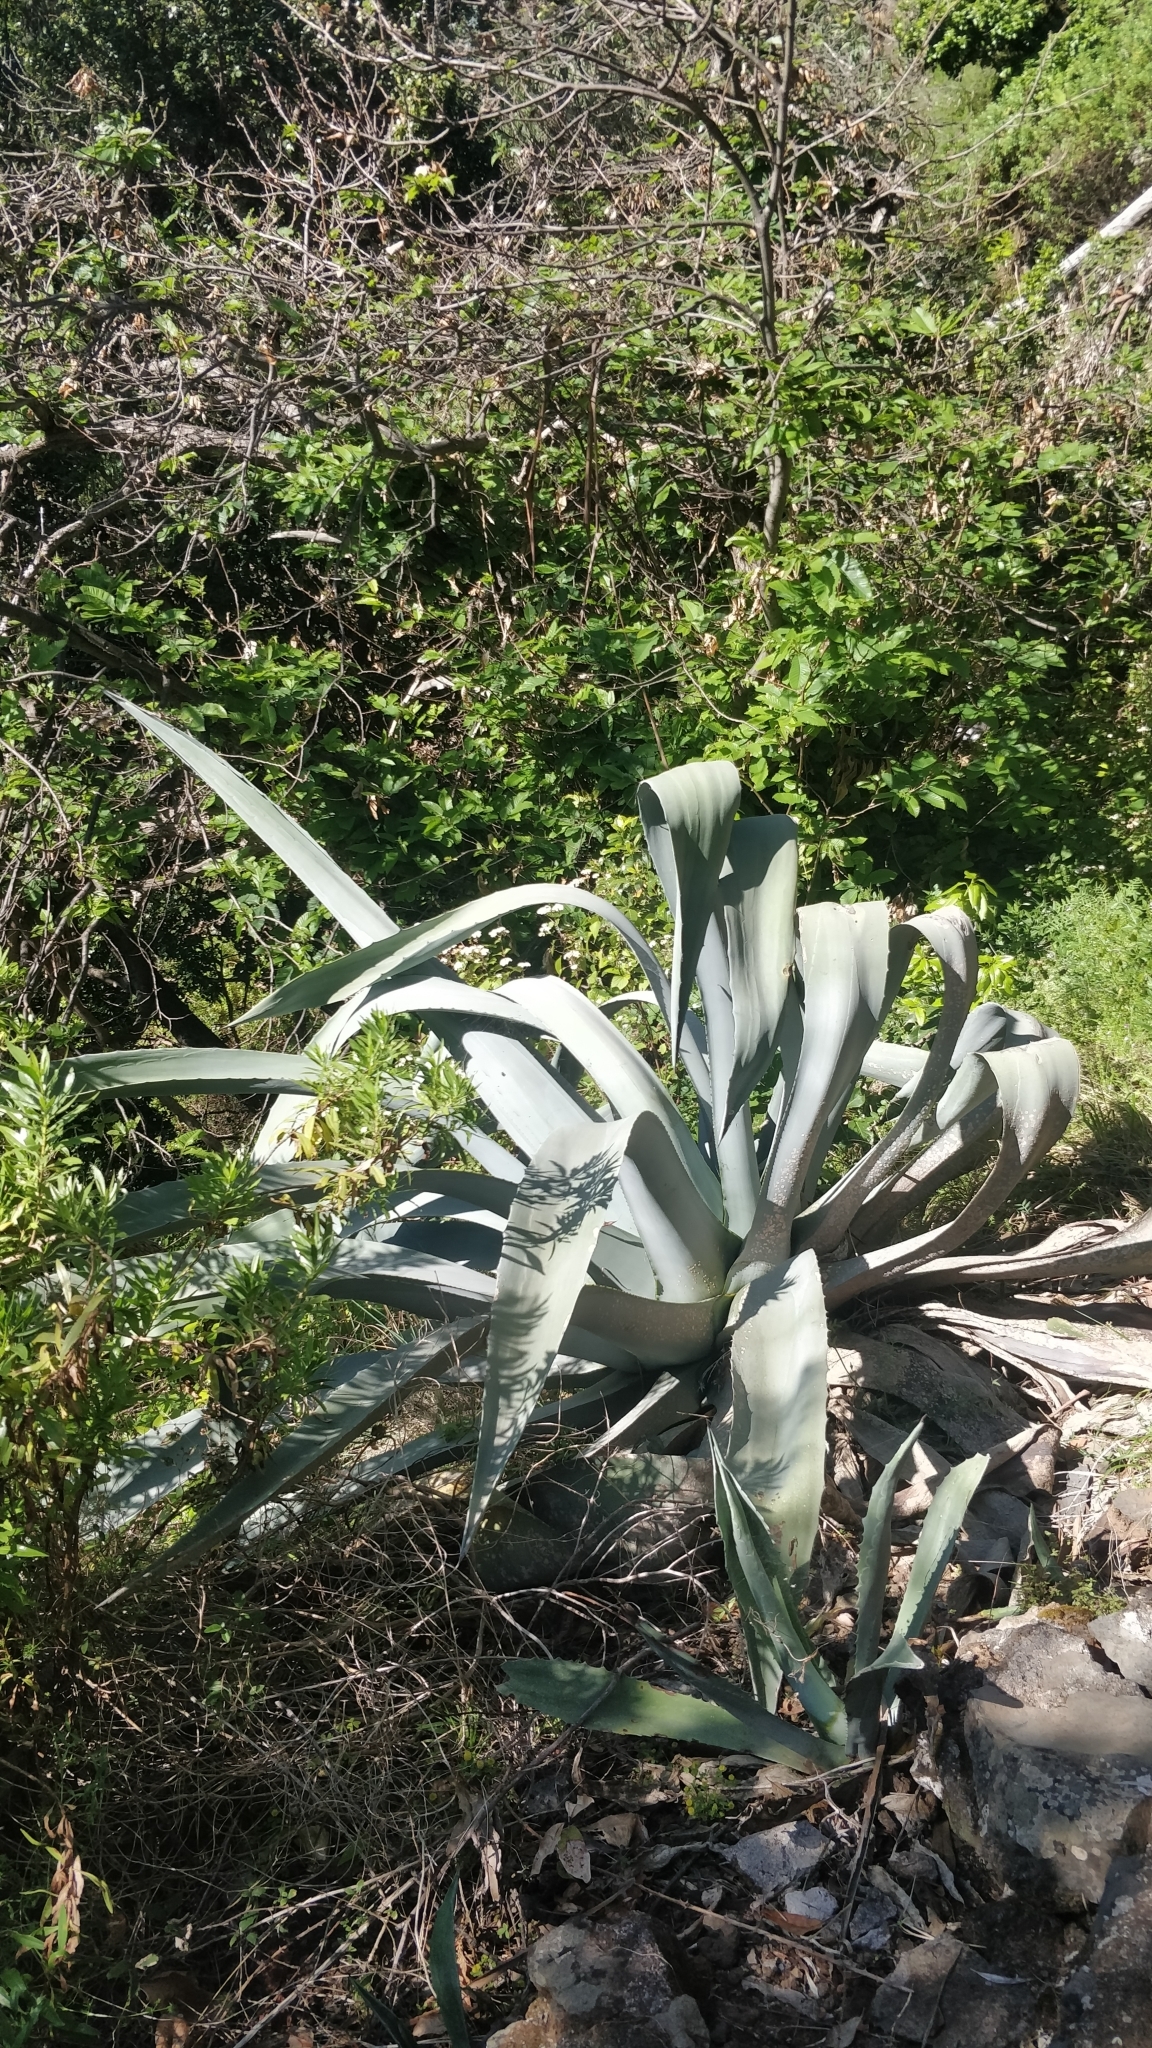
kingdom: Plantae
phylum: Tracheophyta
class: Liliopsida
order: Asparagales
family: Asparagaceae
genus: Agave
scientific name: Agave americana
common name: Centuryplant
